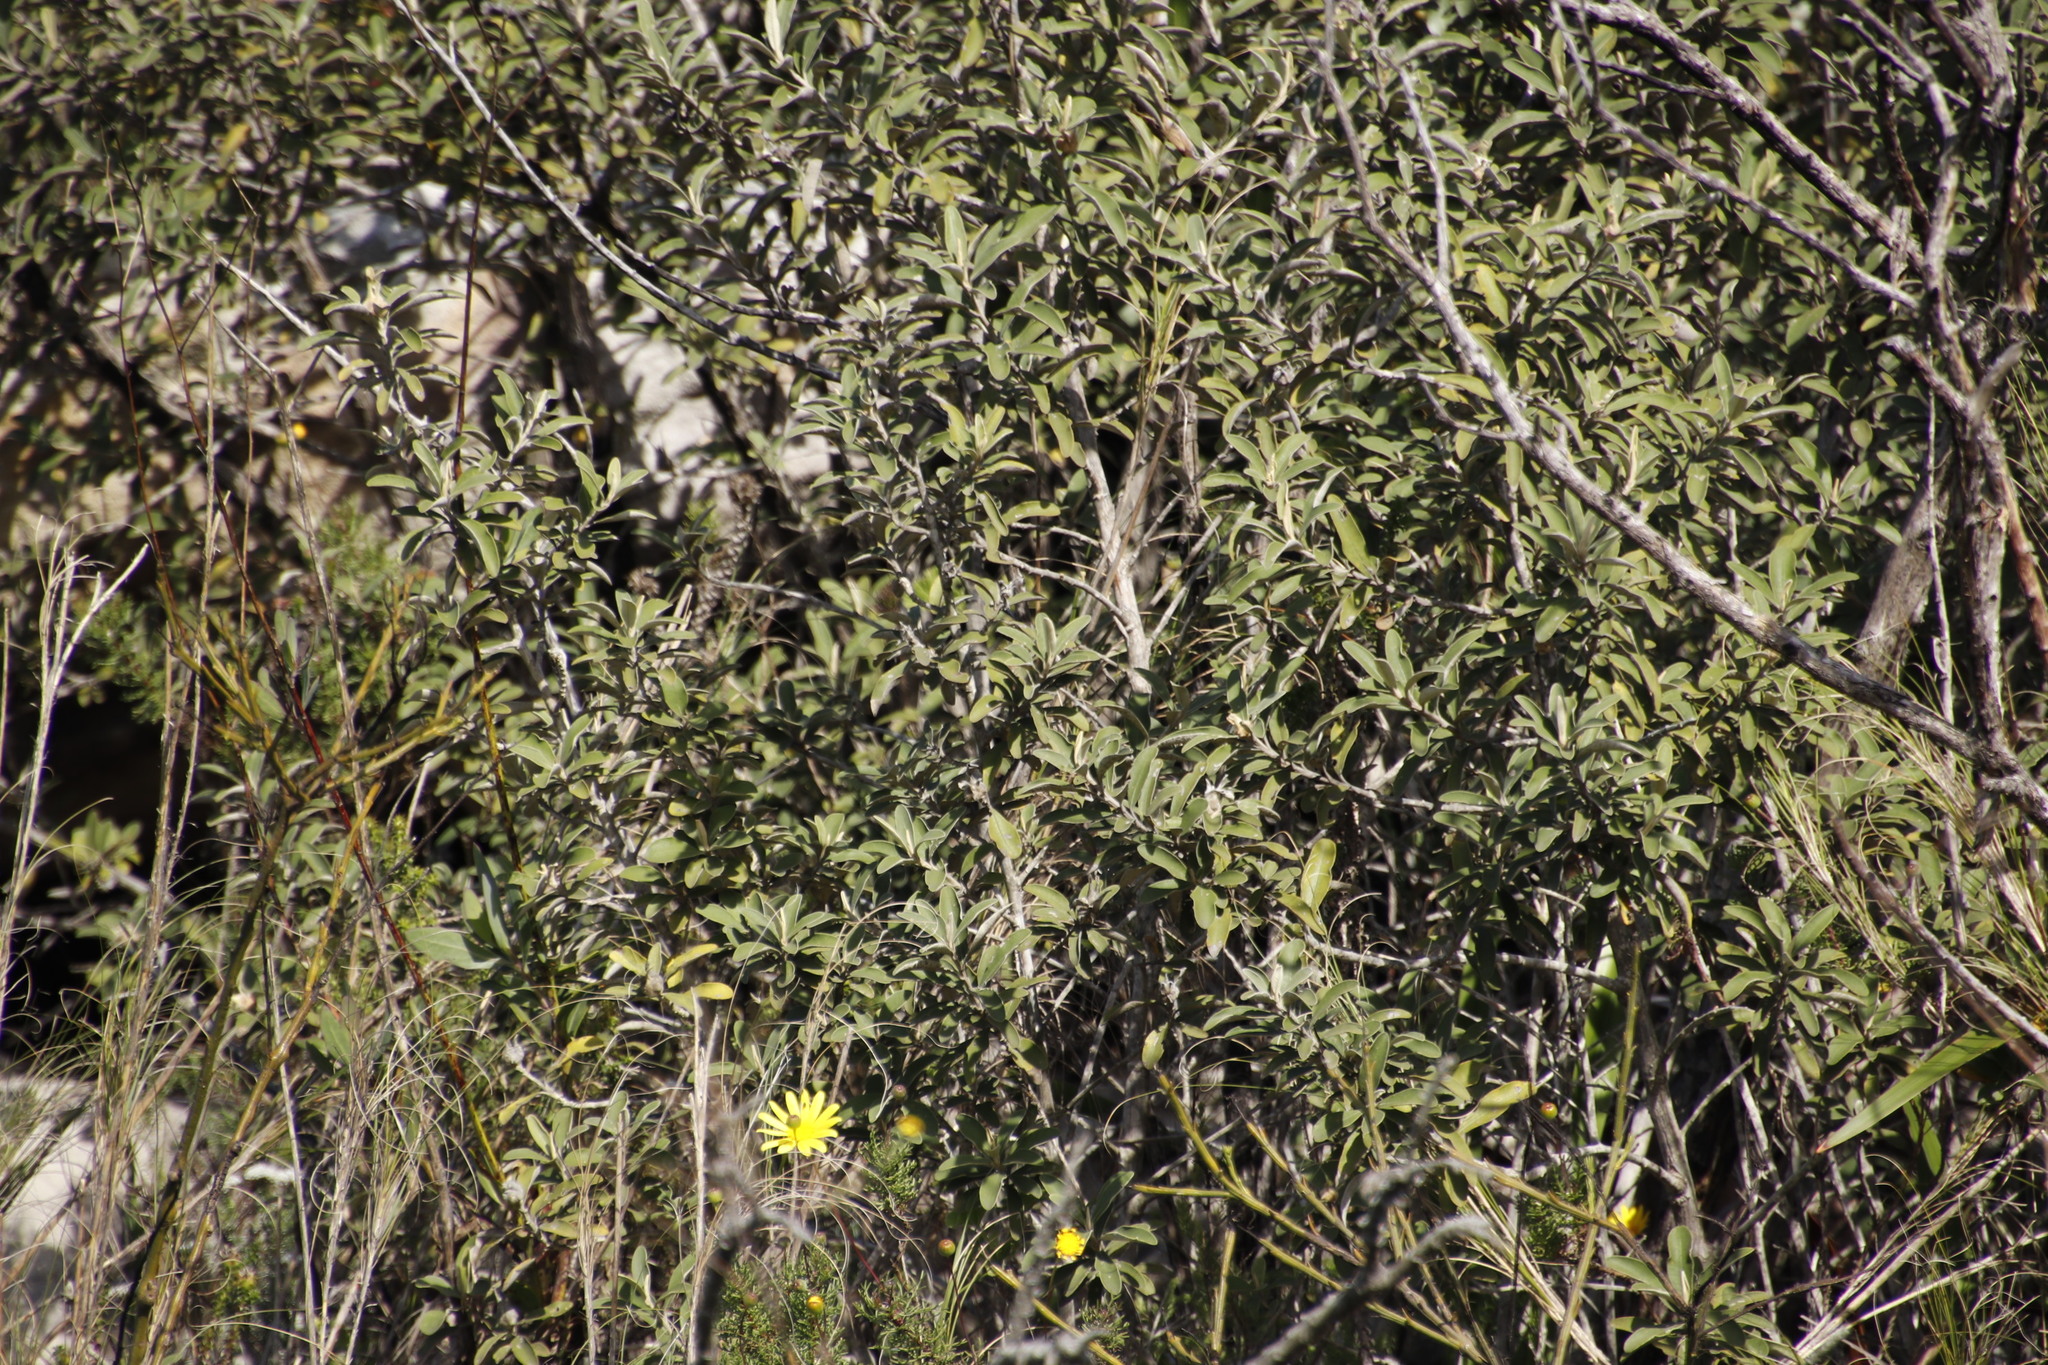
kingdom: Plantae
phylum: Tracheophyta
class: Magnoliopsida
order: Asterales
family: Asteraceae
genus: Tarchonanthus
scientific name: Tarchonanthus littoralis
